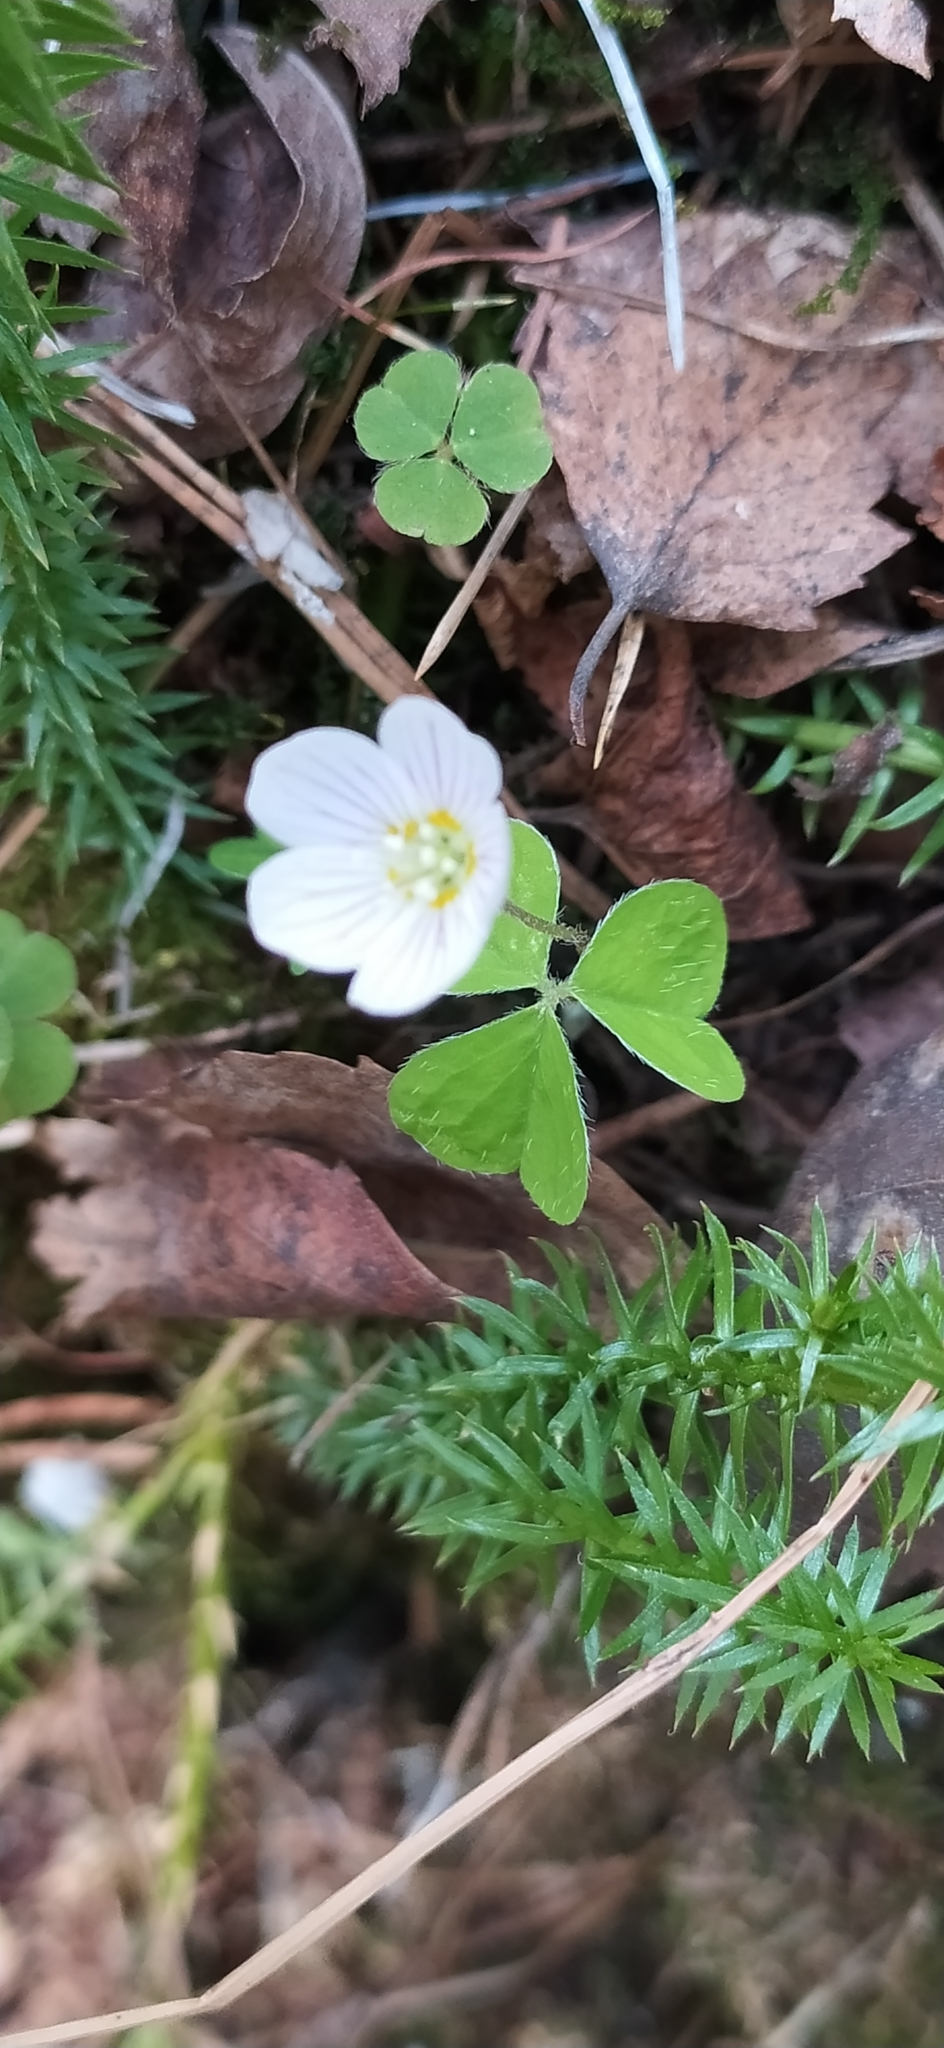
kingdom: Plantae
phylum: Tracheophyta
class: Magnoliopsida
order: Oxalidales
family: Oxalidaceae
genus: Oxalis
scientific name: Oxalis acetosella
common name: Wood-sorrel
